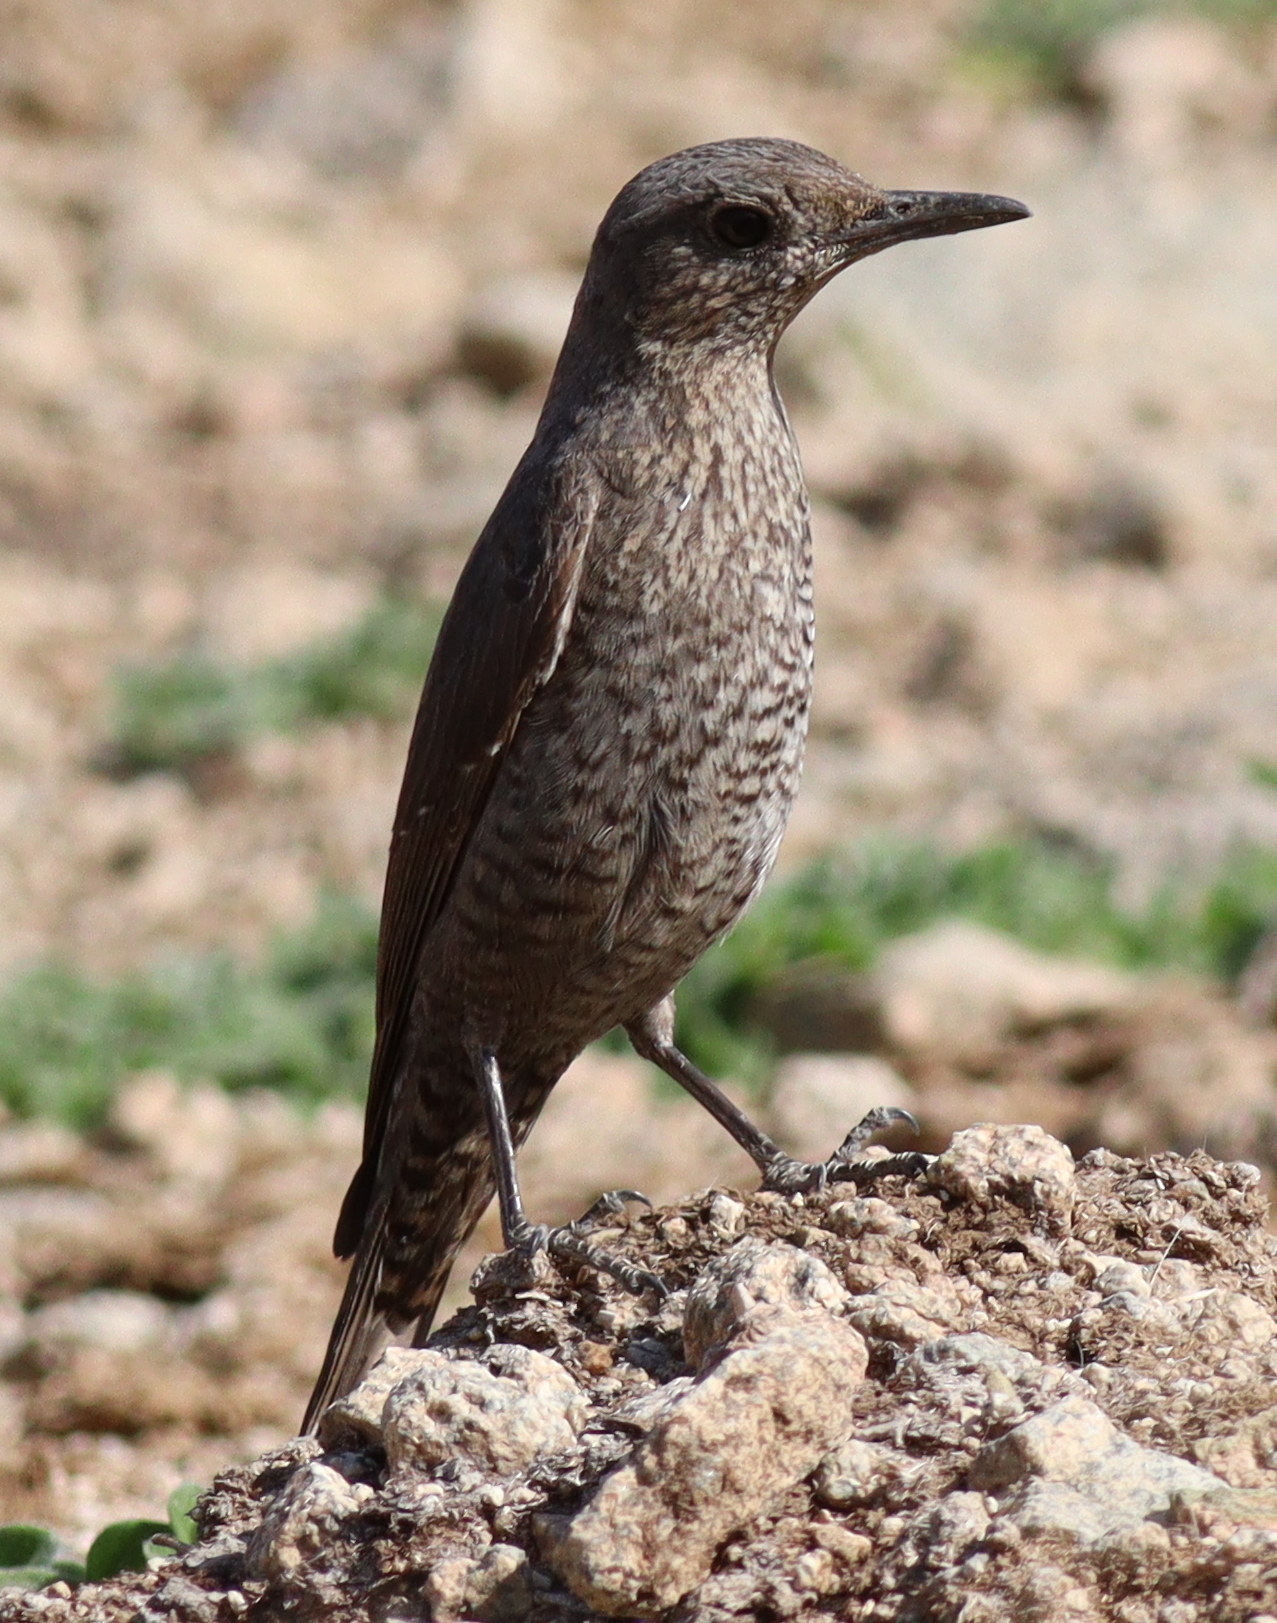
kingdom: Animalia
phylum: Chordata
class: Aves
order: Passeriformes
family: Muscicapidae
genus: Monticola
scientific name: Monticola solitarius
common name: Blue rock thrush
